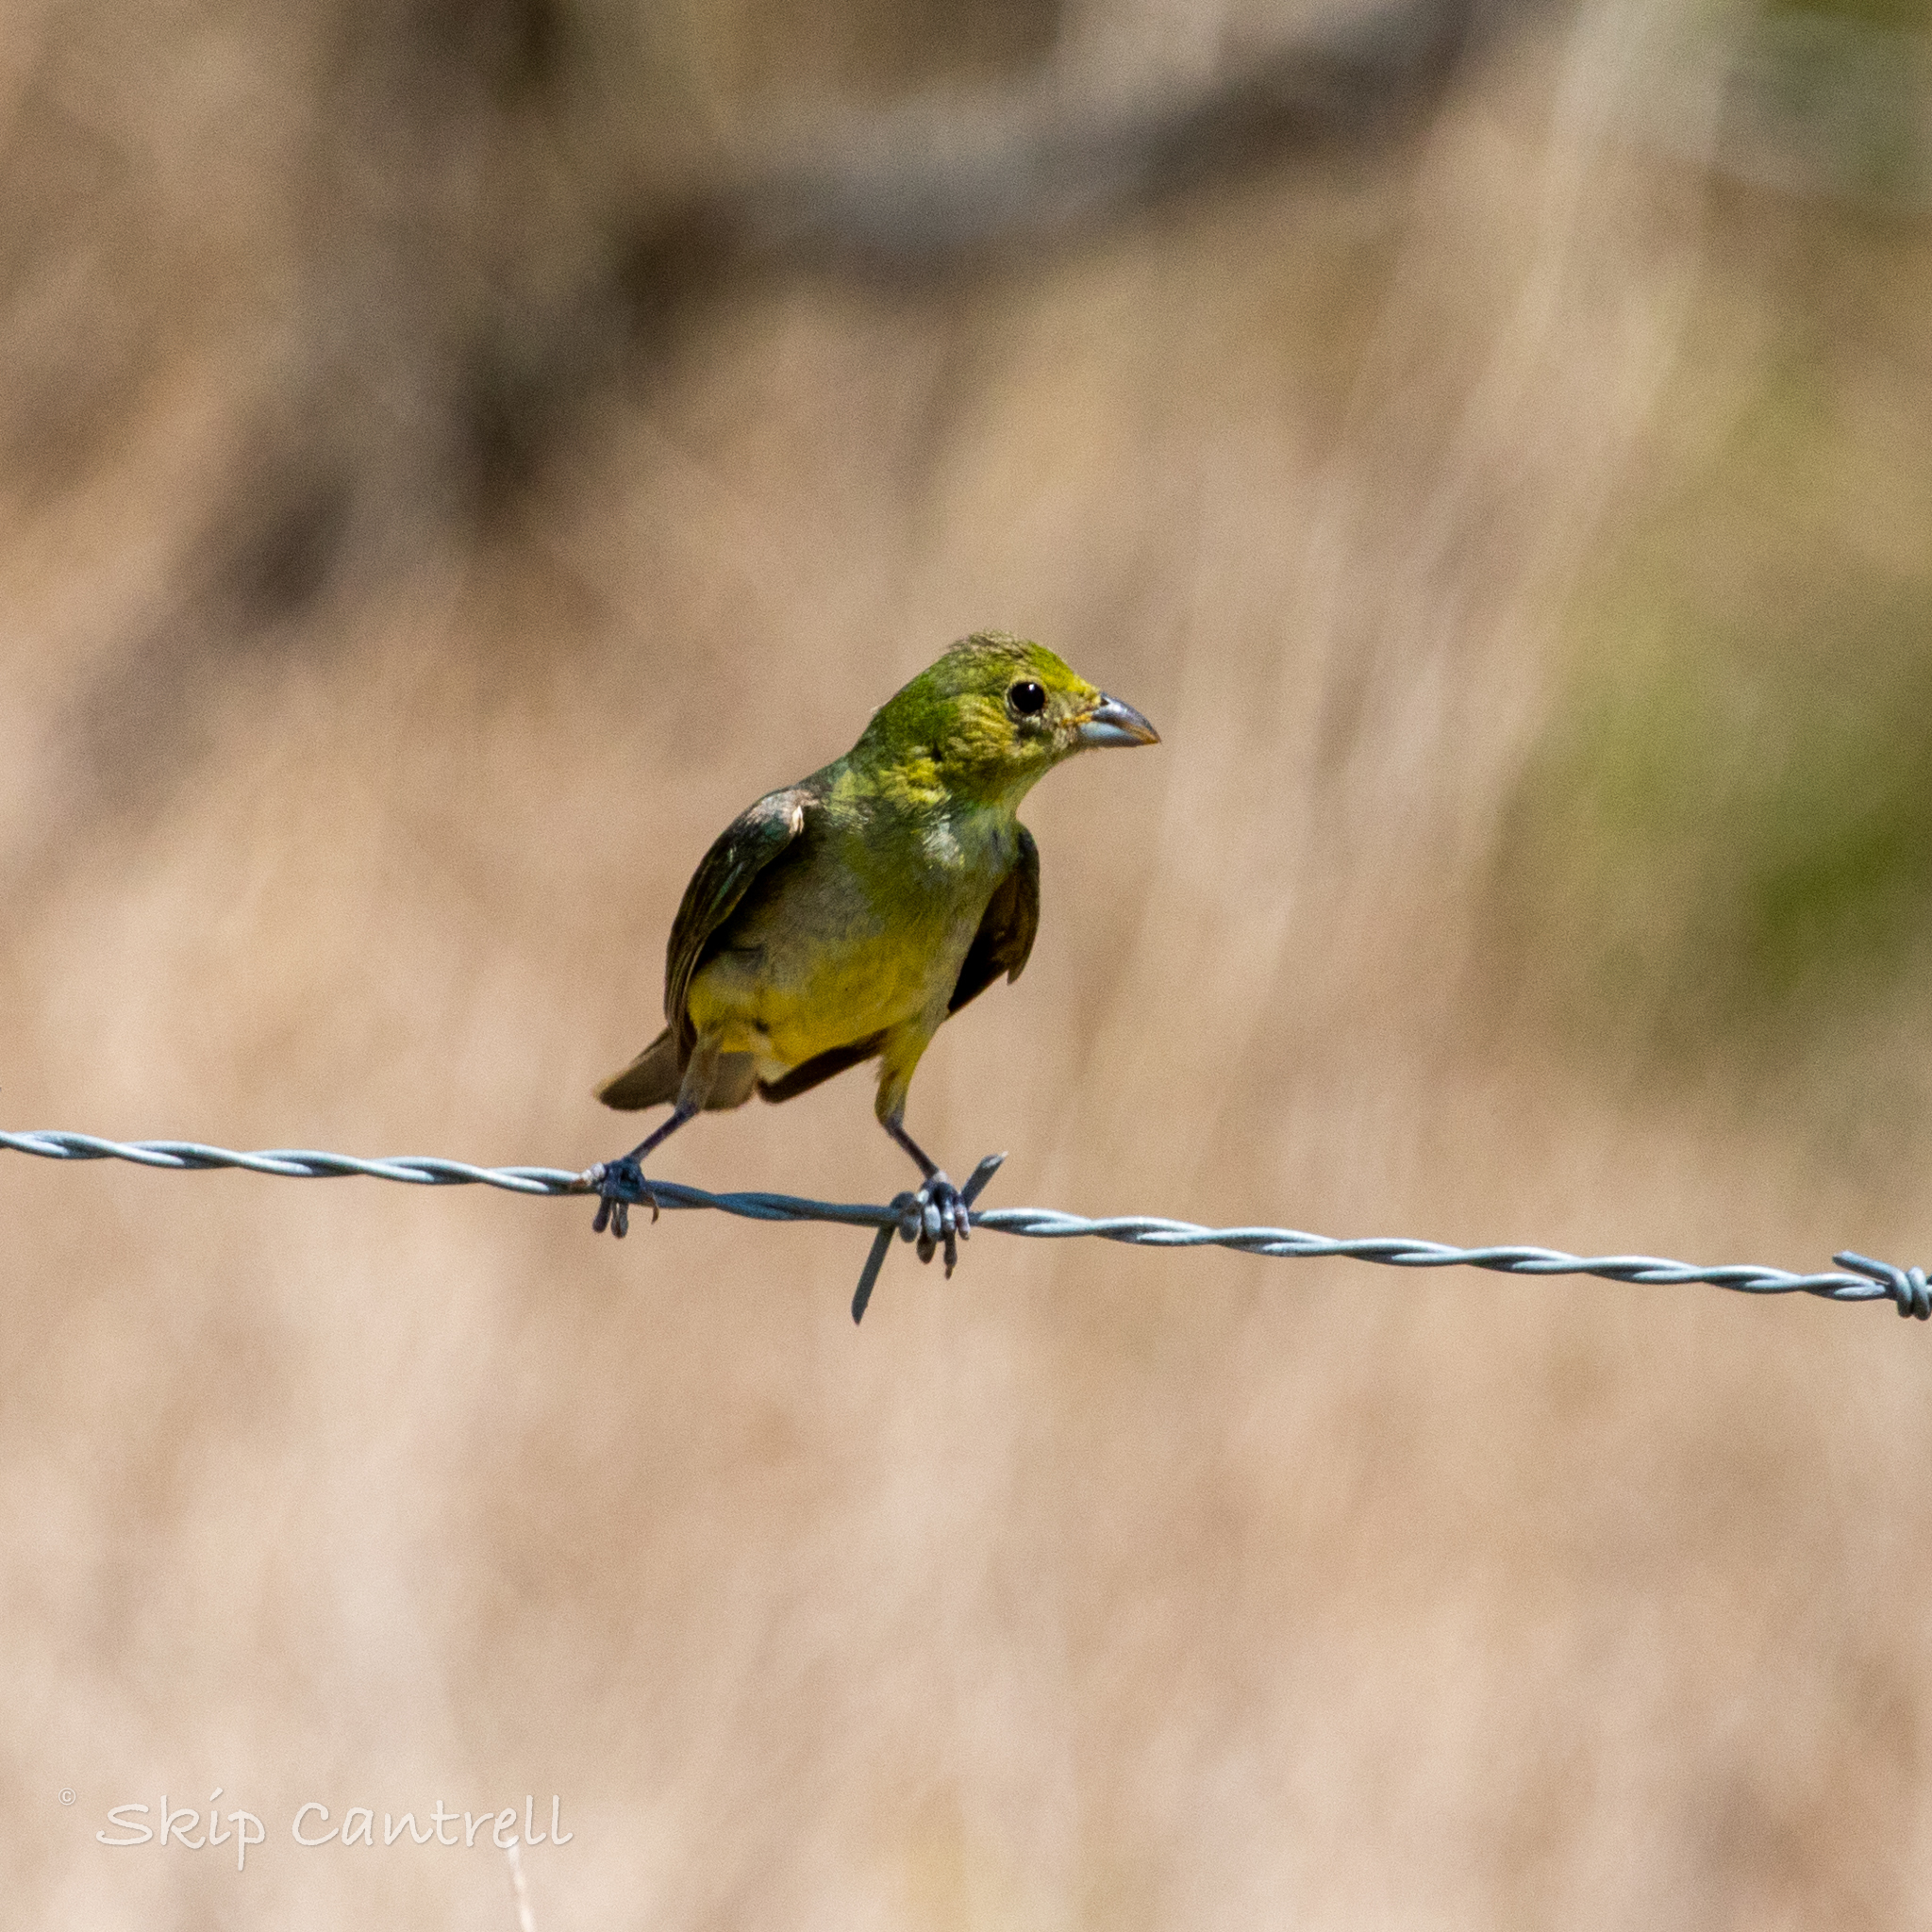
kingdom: Animalia
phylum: Chordata
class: Aves
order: Passeriformes
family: Cardinalidae
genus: Passerina
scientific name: Passerina ciris
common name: Painted bunting
